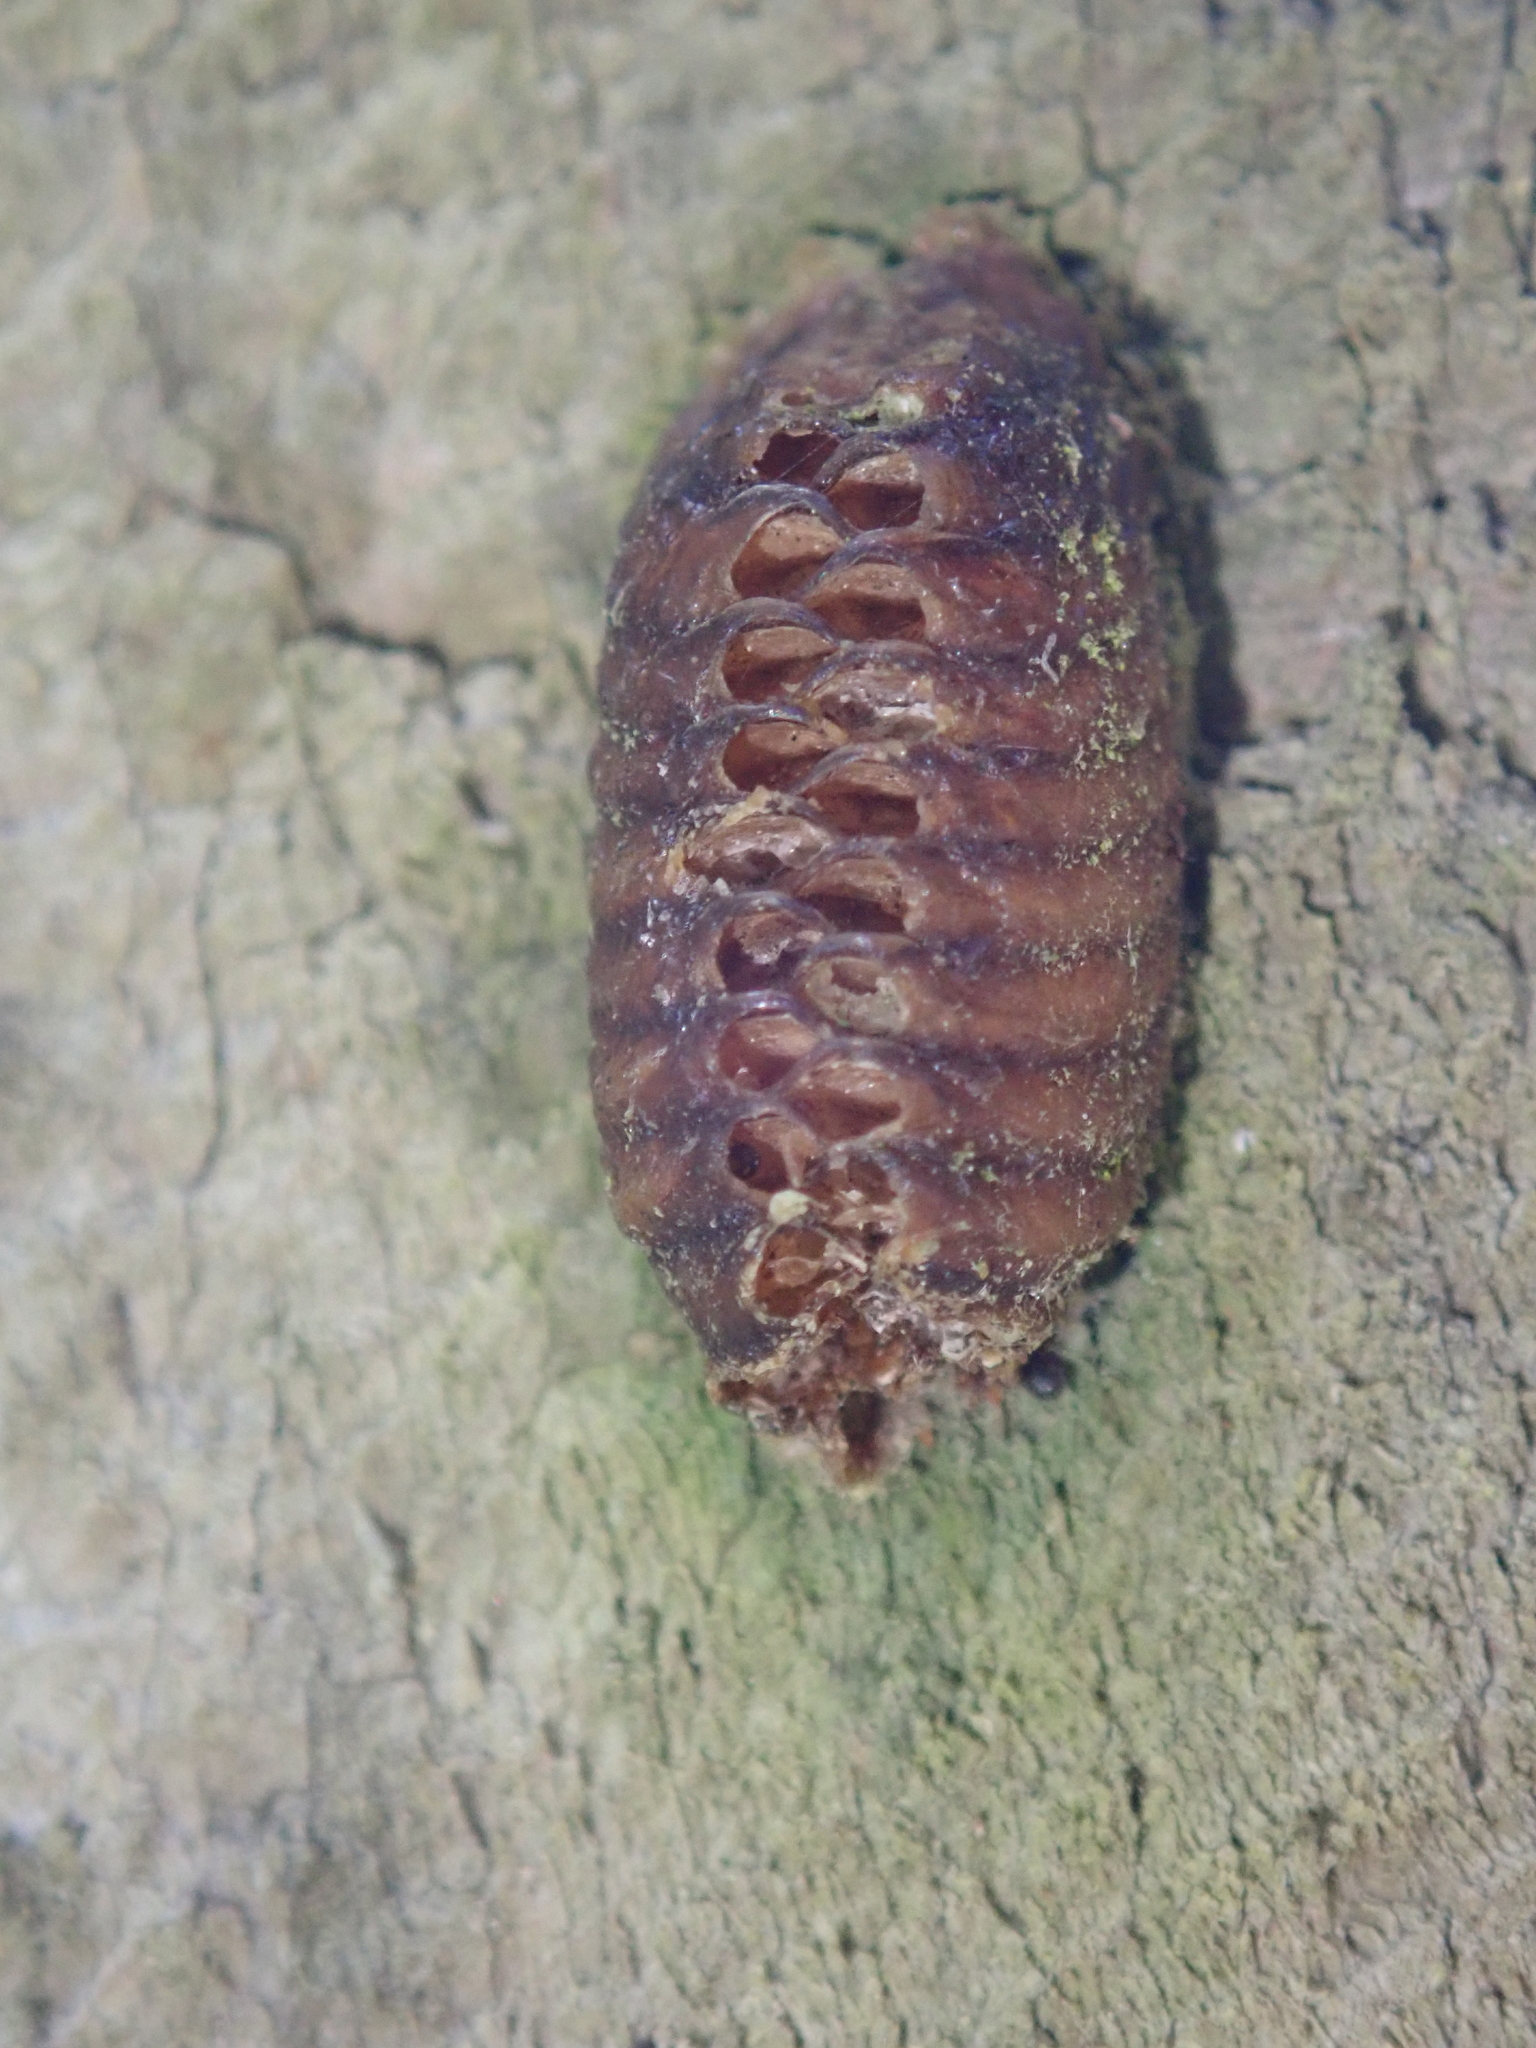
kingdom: Animalia
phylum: Arthropoda
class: Insecta
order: Mantodea
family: Mantidae
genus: Orthodera
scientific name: Orthodera novaezealandiae
